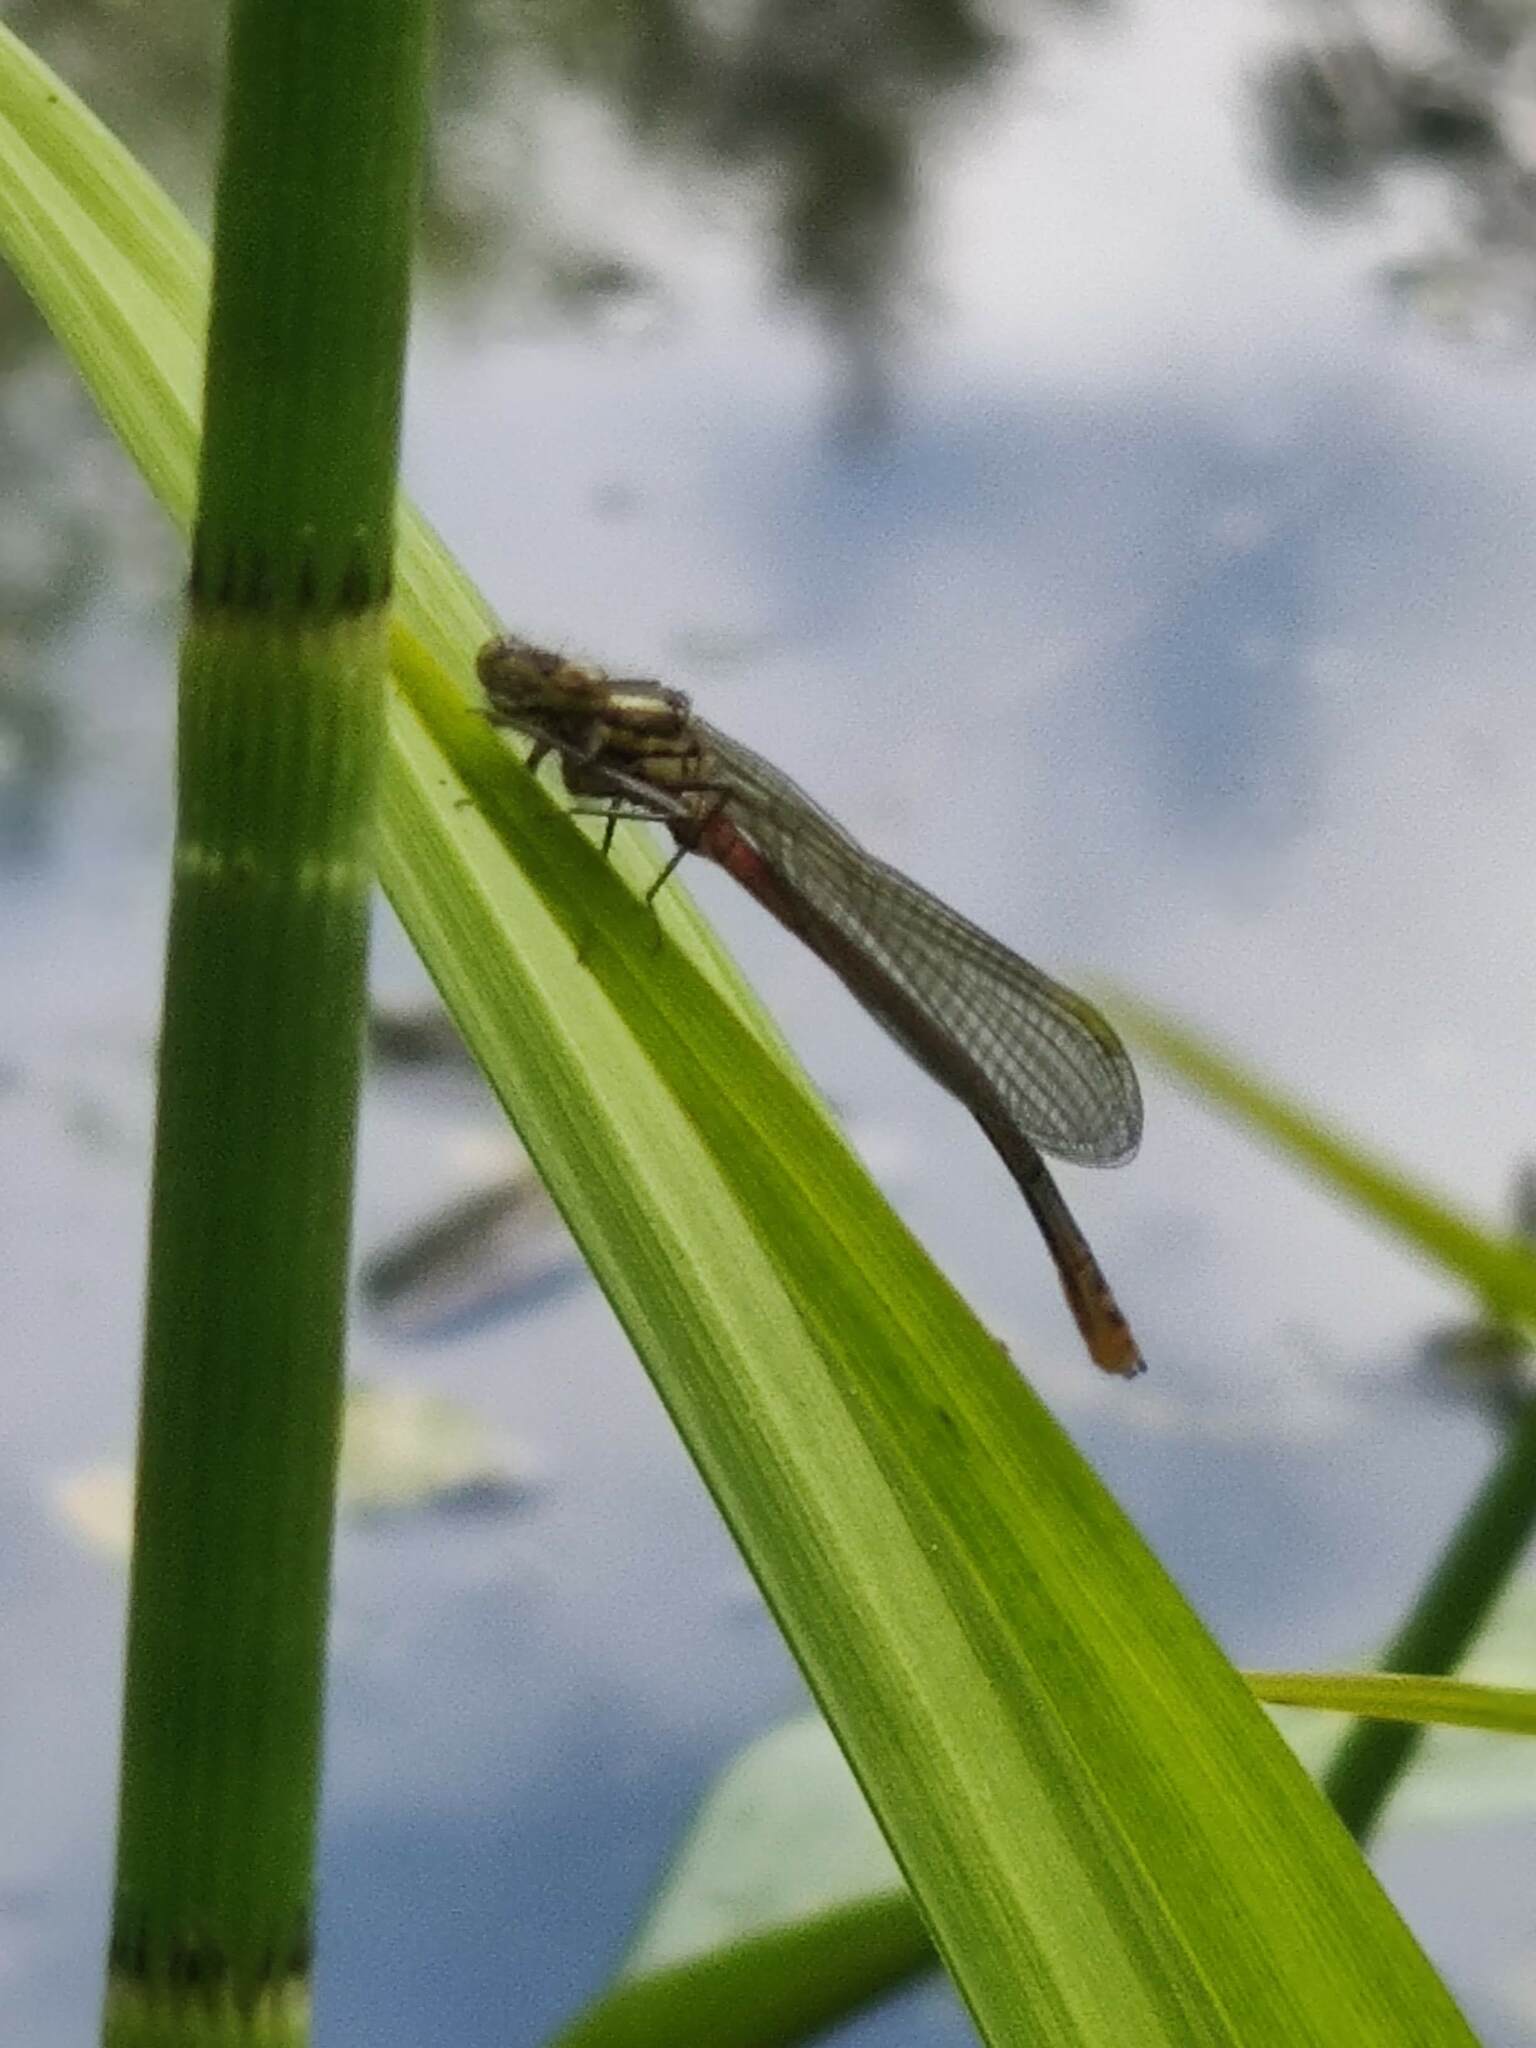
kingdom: Animalia
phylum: Arthropoda
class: Insecta
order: Odonata
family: Coenagrionidae
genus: Pyrrhosoma
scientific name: Pyrrhosoma nymphula
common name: Large red damsel
